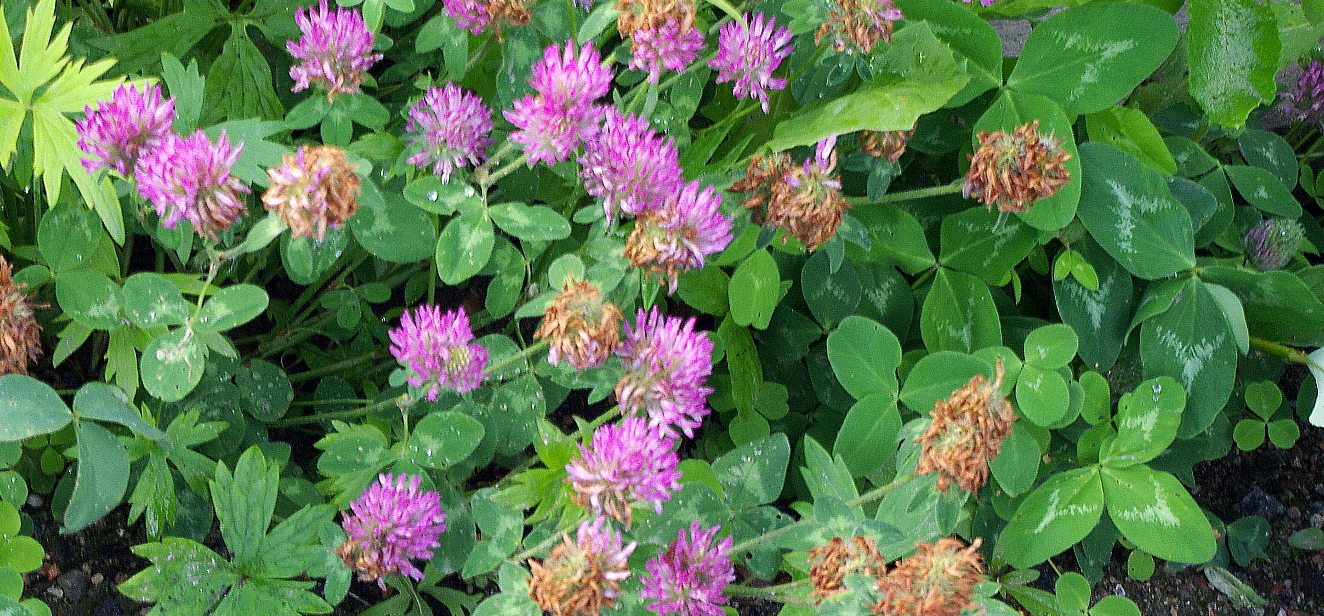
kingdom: Plantae
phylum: Tracheophyta
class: Magnoliopsida
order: Fabales
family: Fabaceae
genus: Trifolium
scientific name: Trifolium pratense
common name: Red clover
